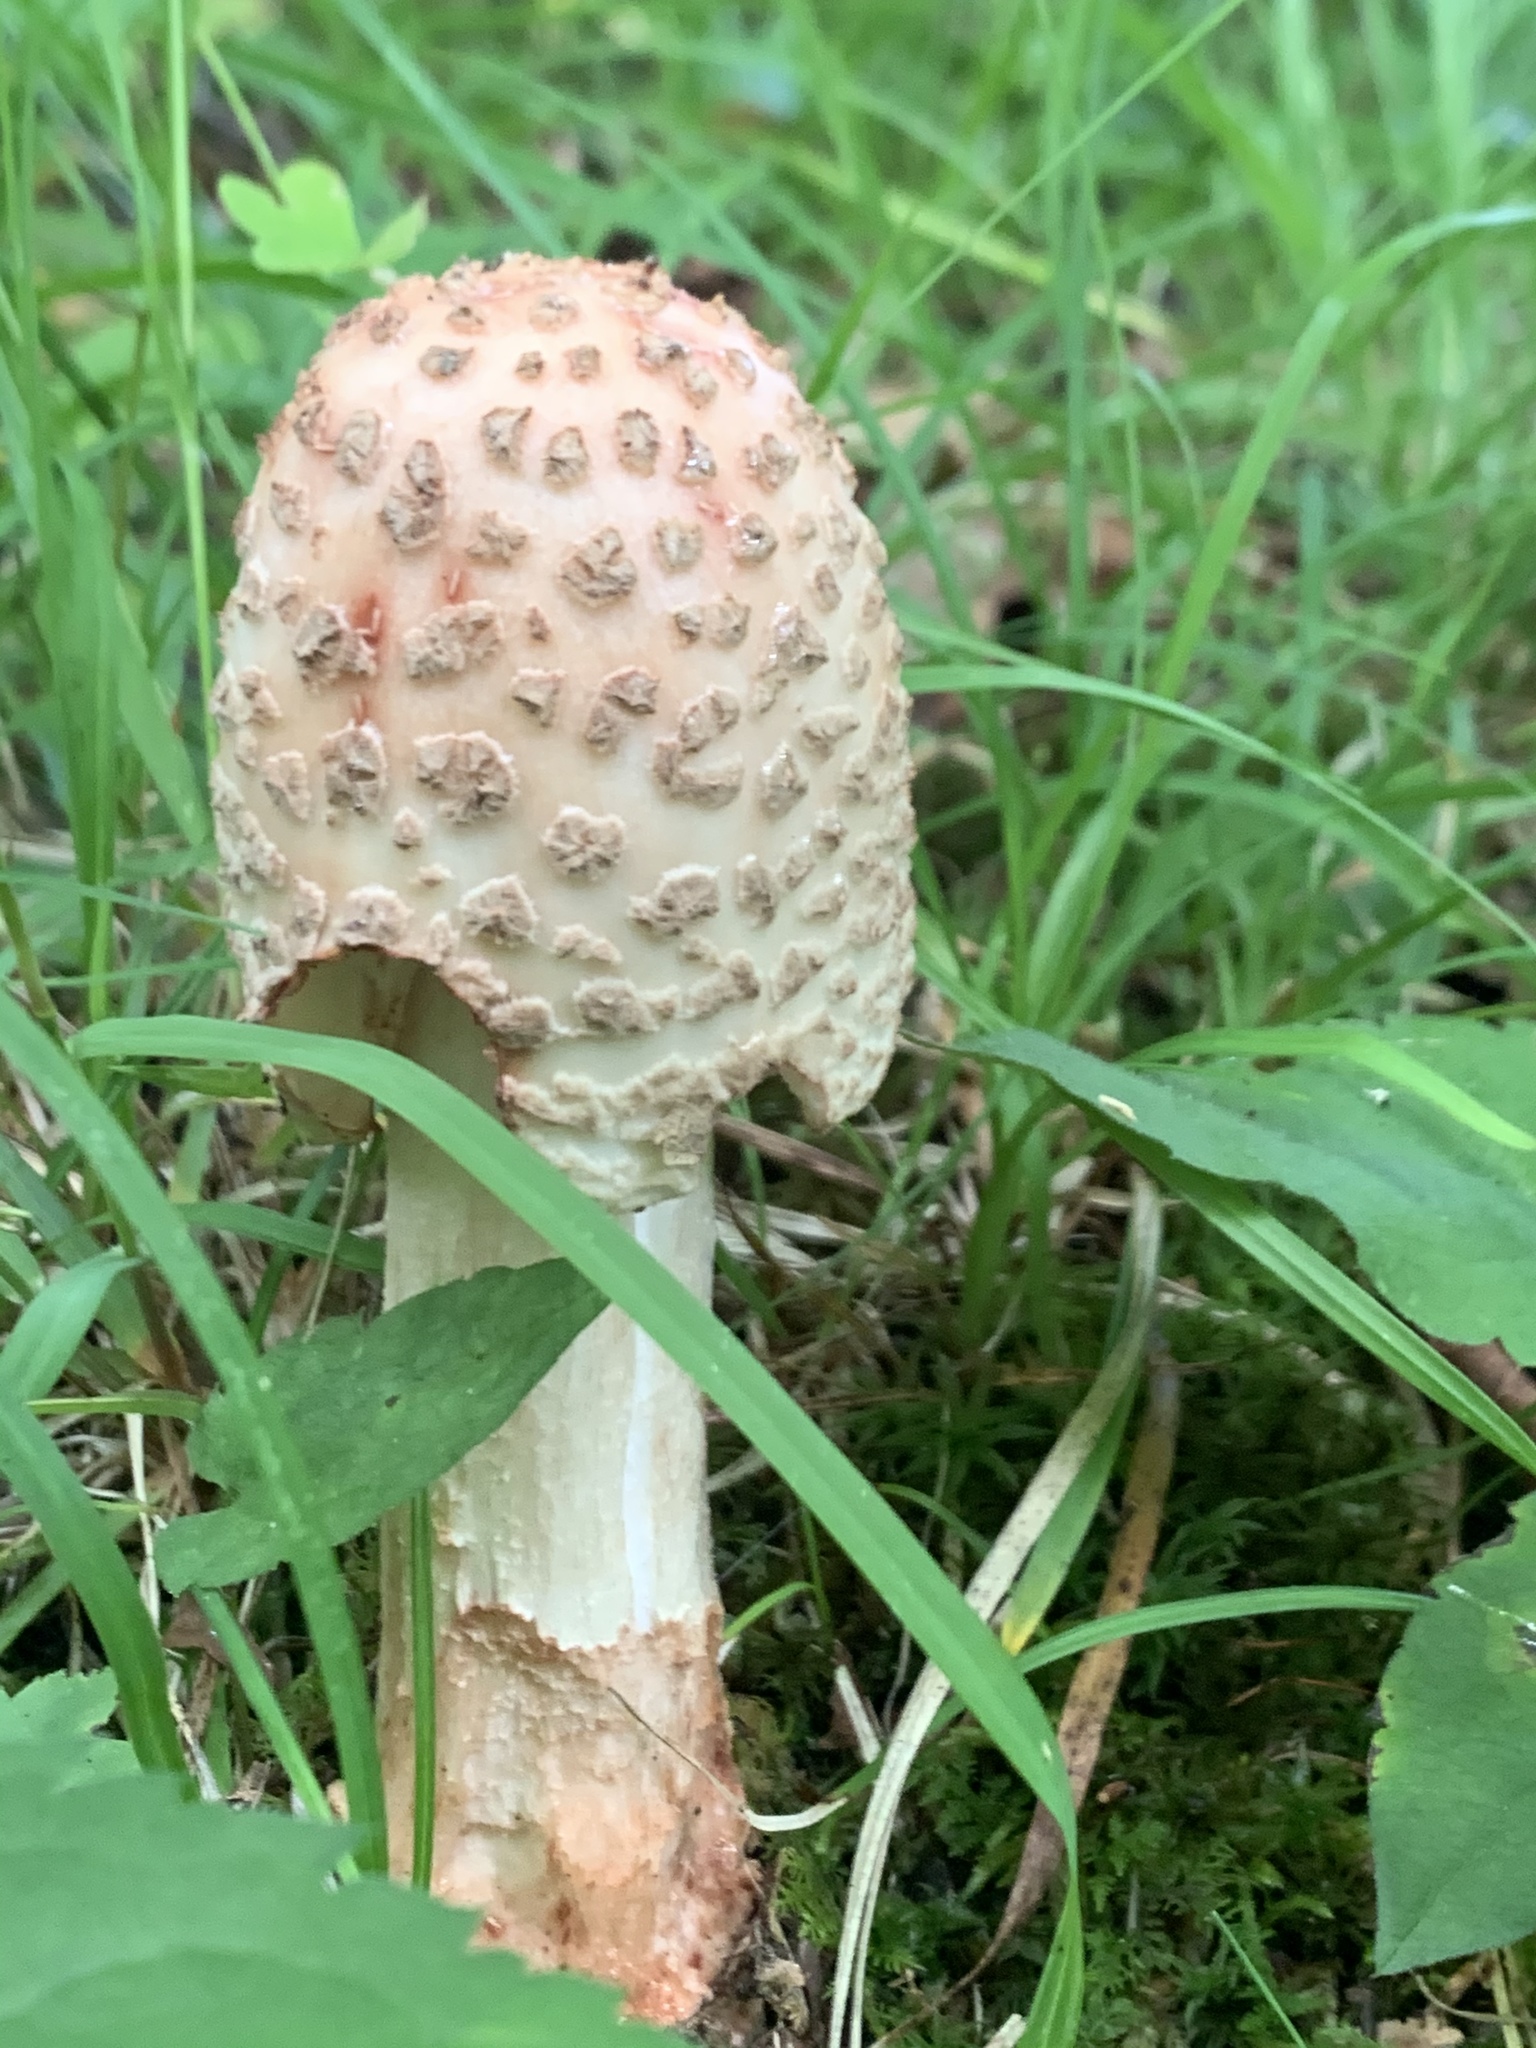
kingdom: Fungi
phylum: Basidiomycota
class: Agaricomycetes
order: Agaricales
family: Amanitaceae
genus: Amanita
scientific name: Amanita
